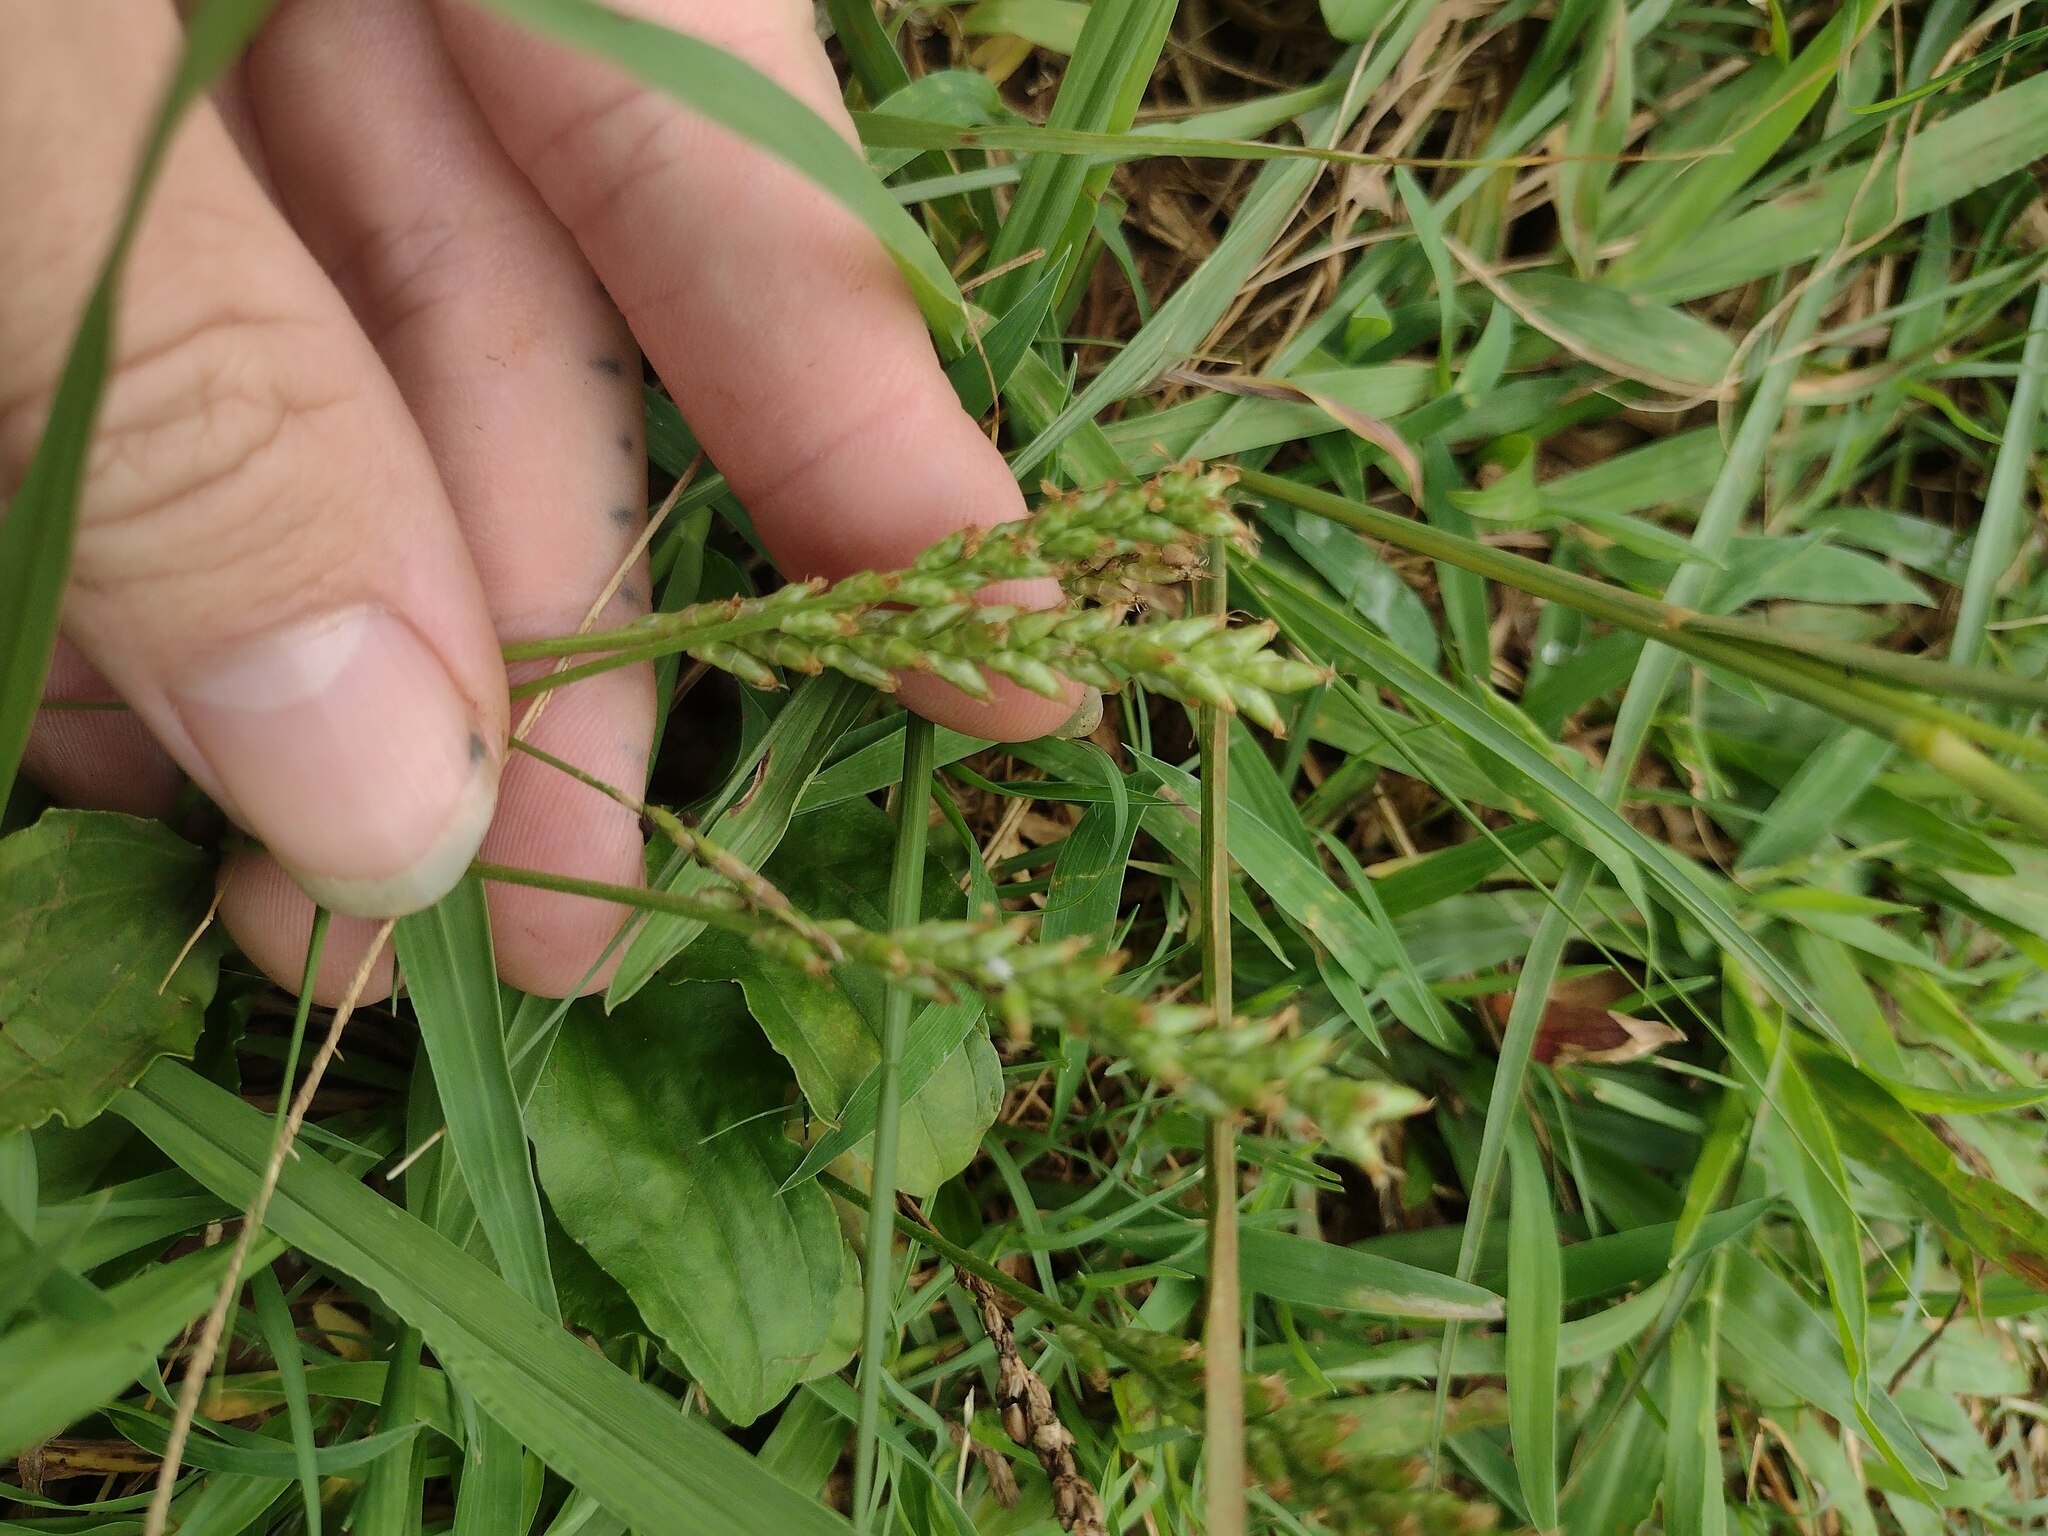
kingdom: Plantae
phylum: Tracheophyta
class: Magnoliopsida
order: Lamiales
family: Plantaginaceae
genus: Plantago
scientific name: Plantago major
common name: Common plantain
